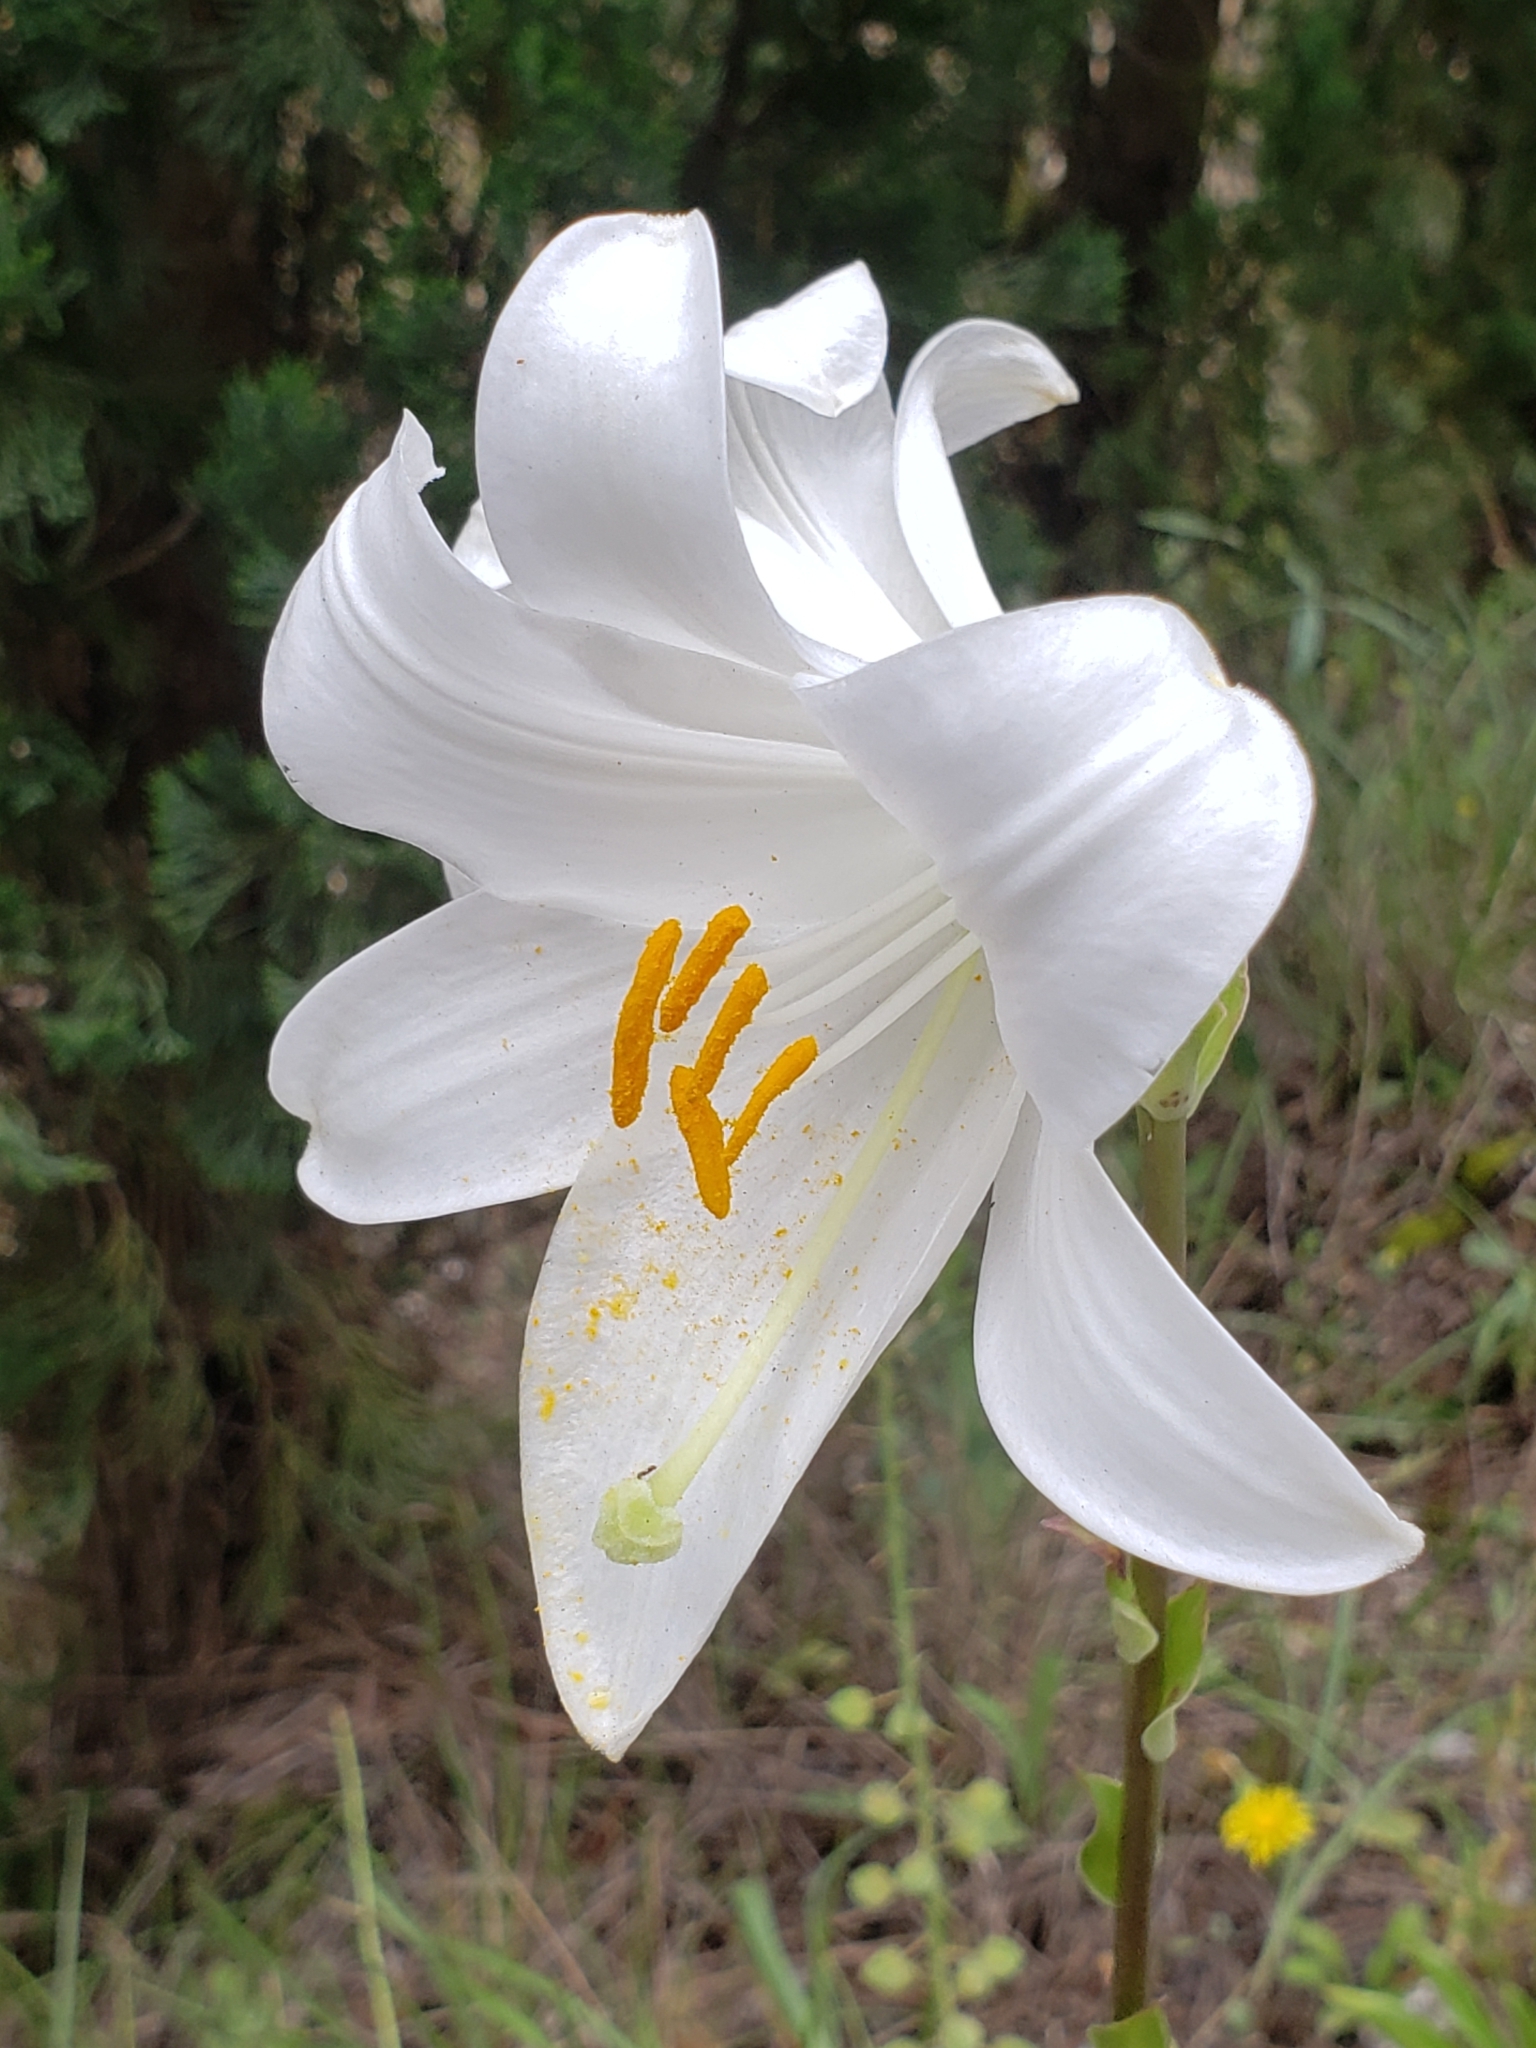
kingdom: Plantae
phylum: Tracheophyta
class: Liliopsida
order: Liliales
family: Liliaceae
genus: Lilium
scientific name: Lilium candidum
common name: Madonna lily
